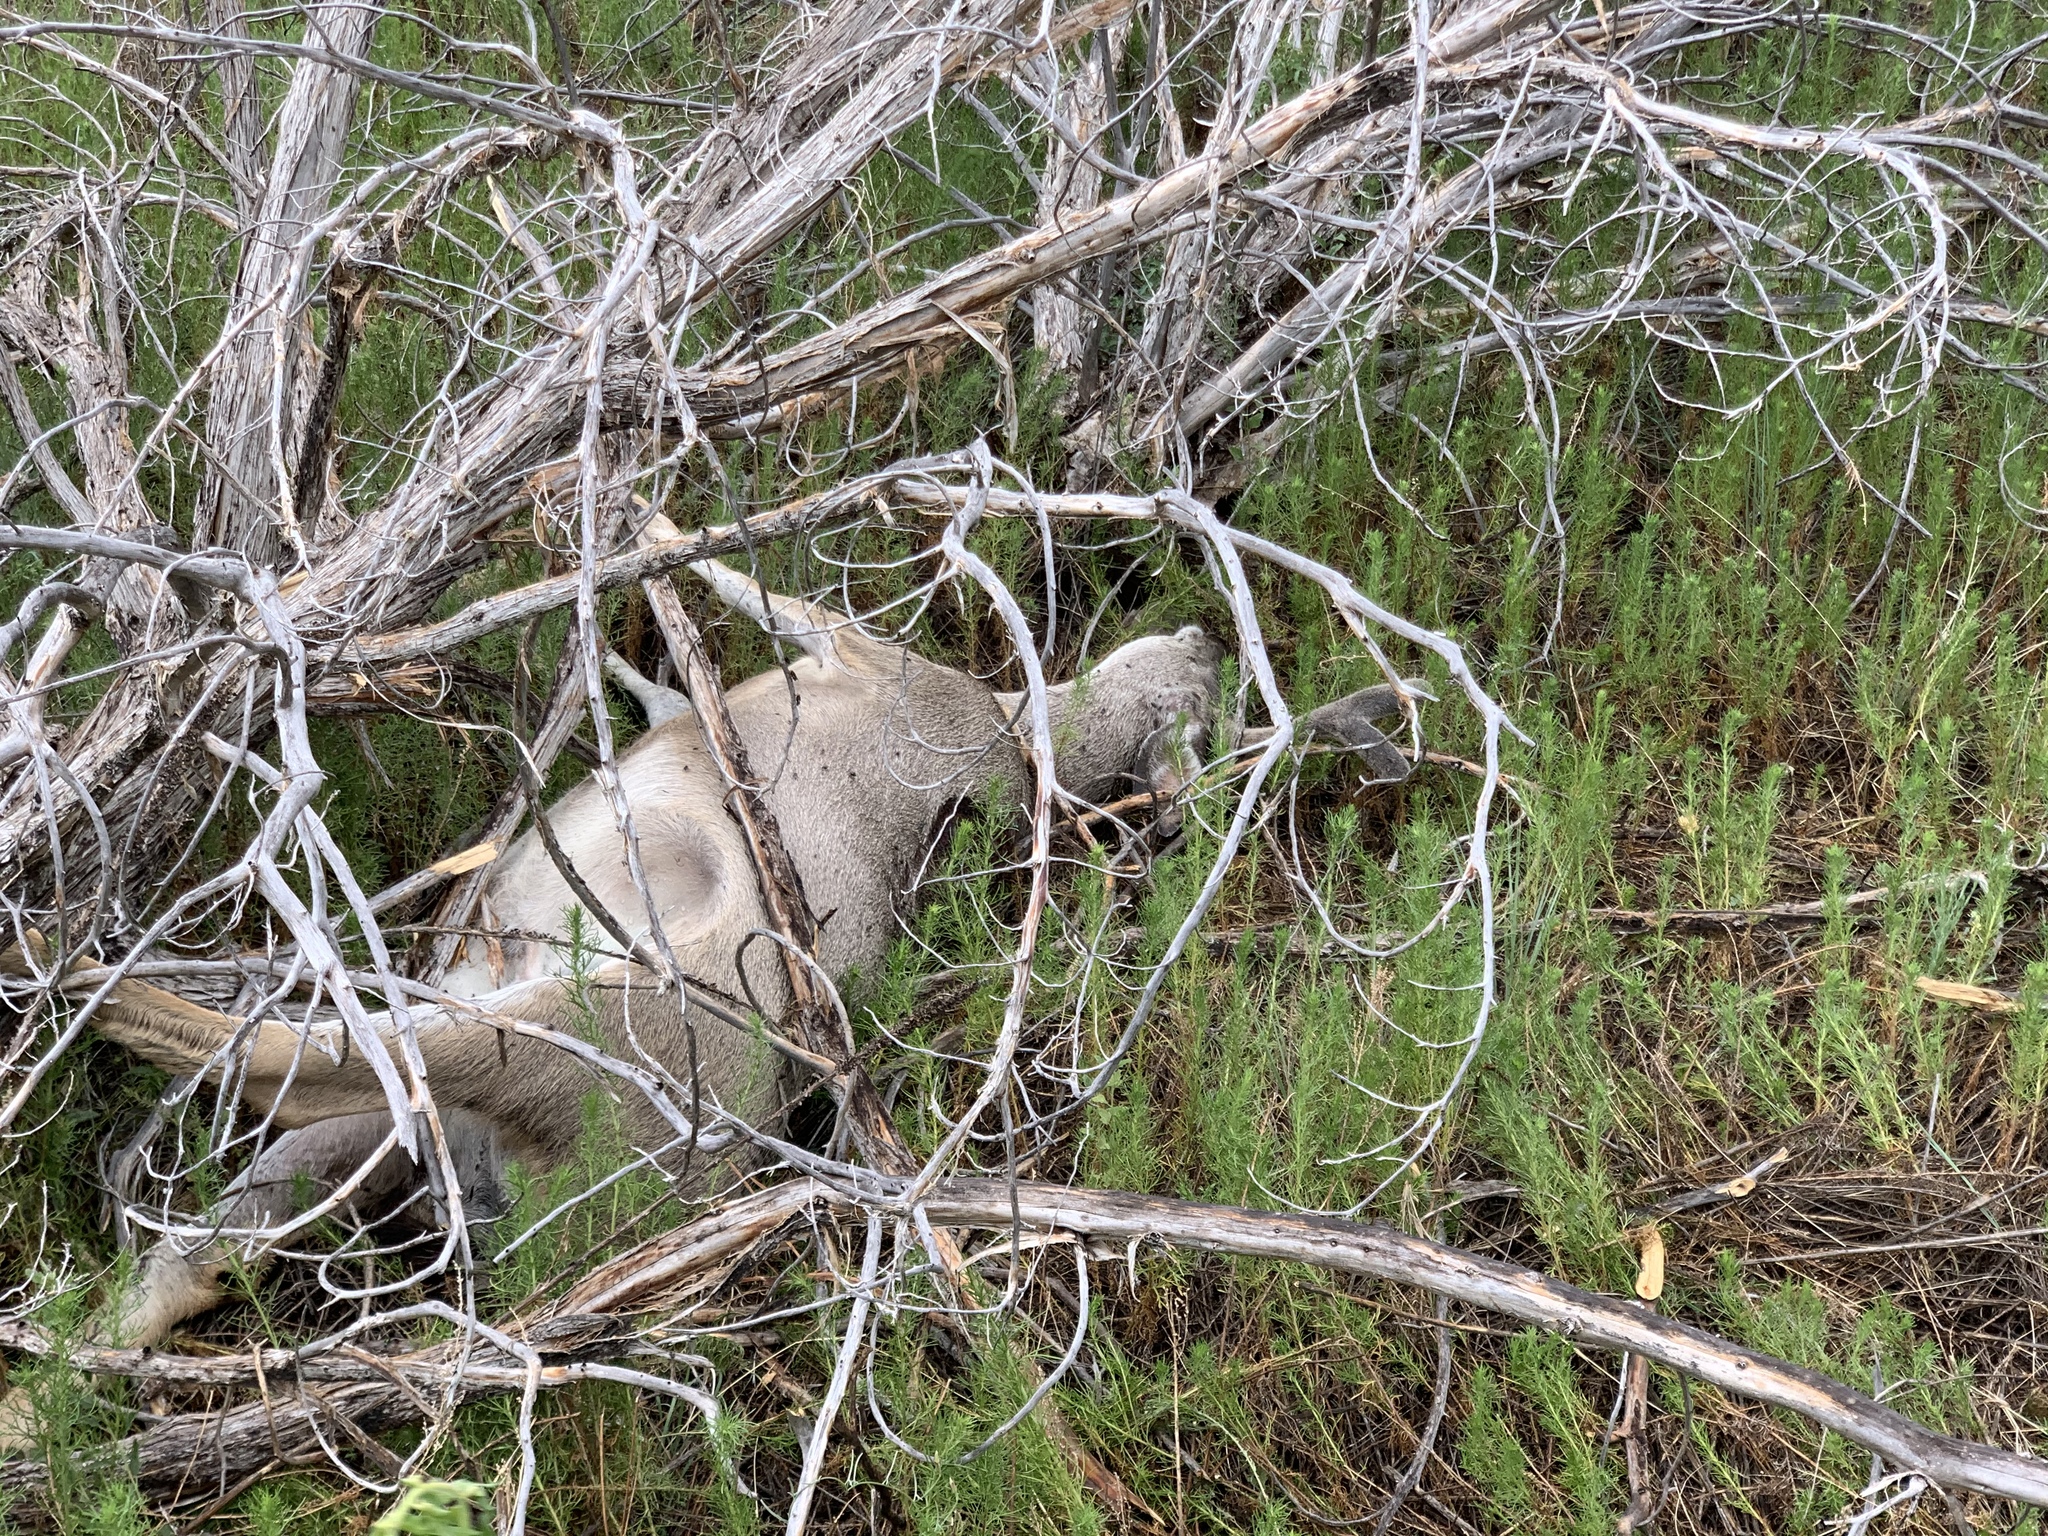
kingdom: Animalia
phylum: Chordata
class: Mammalia
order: Artiodactyla
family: Cervidae
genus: Odocoileus
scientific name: Odocoileus hemionus
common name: Mule deer
